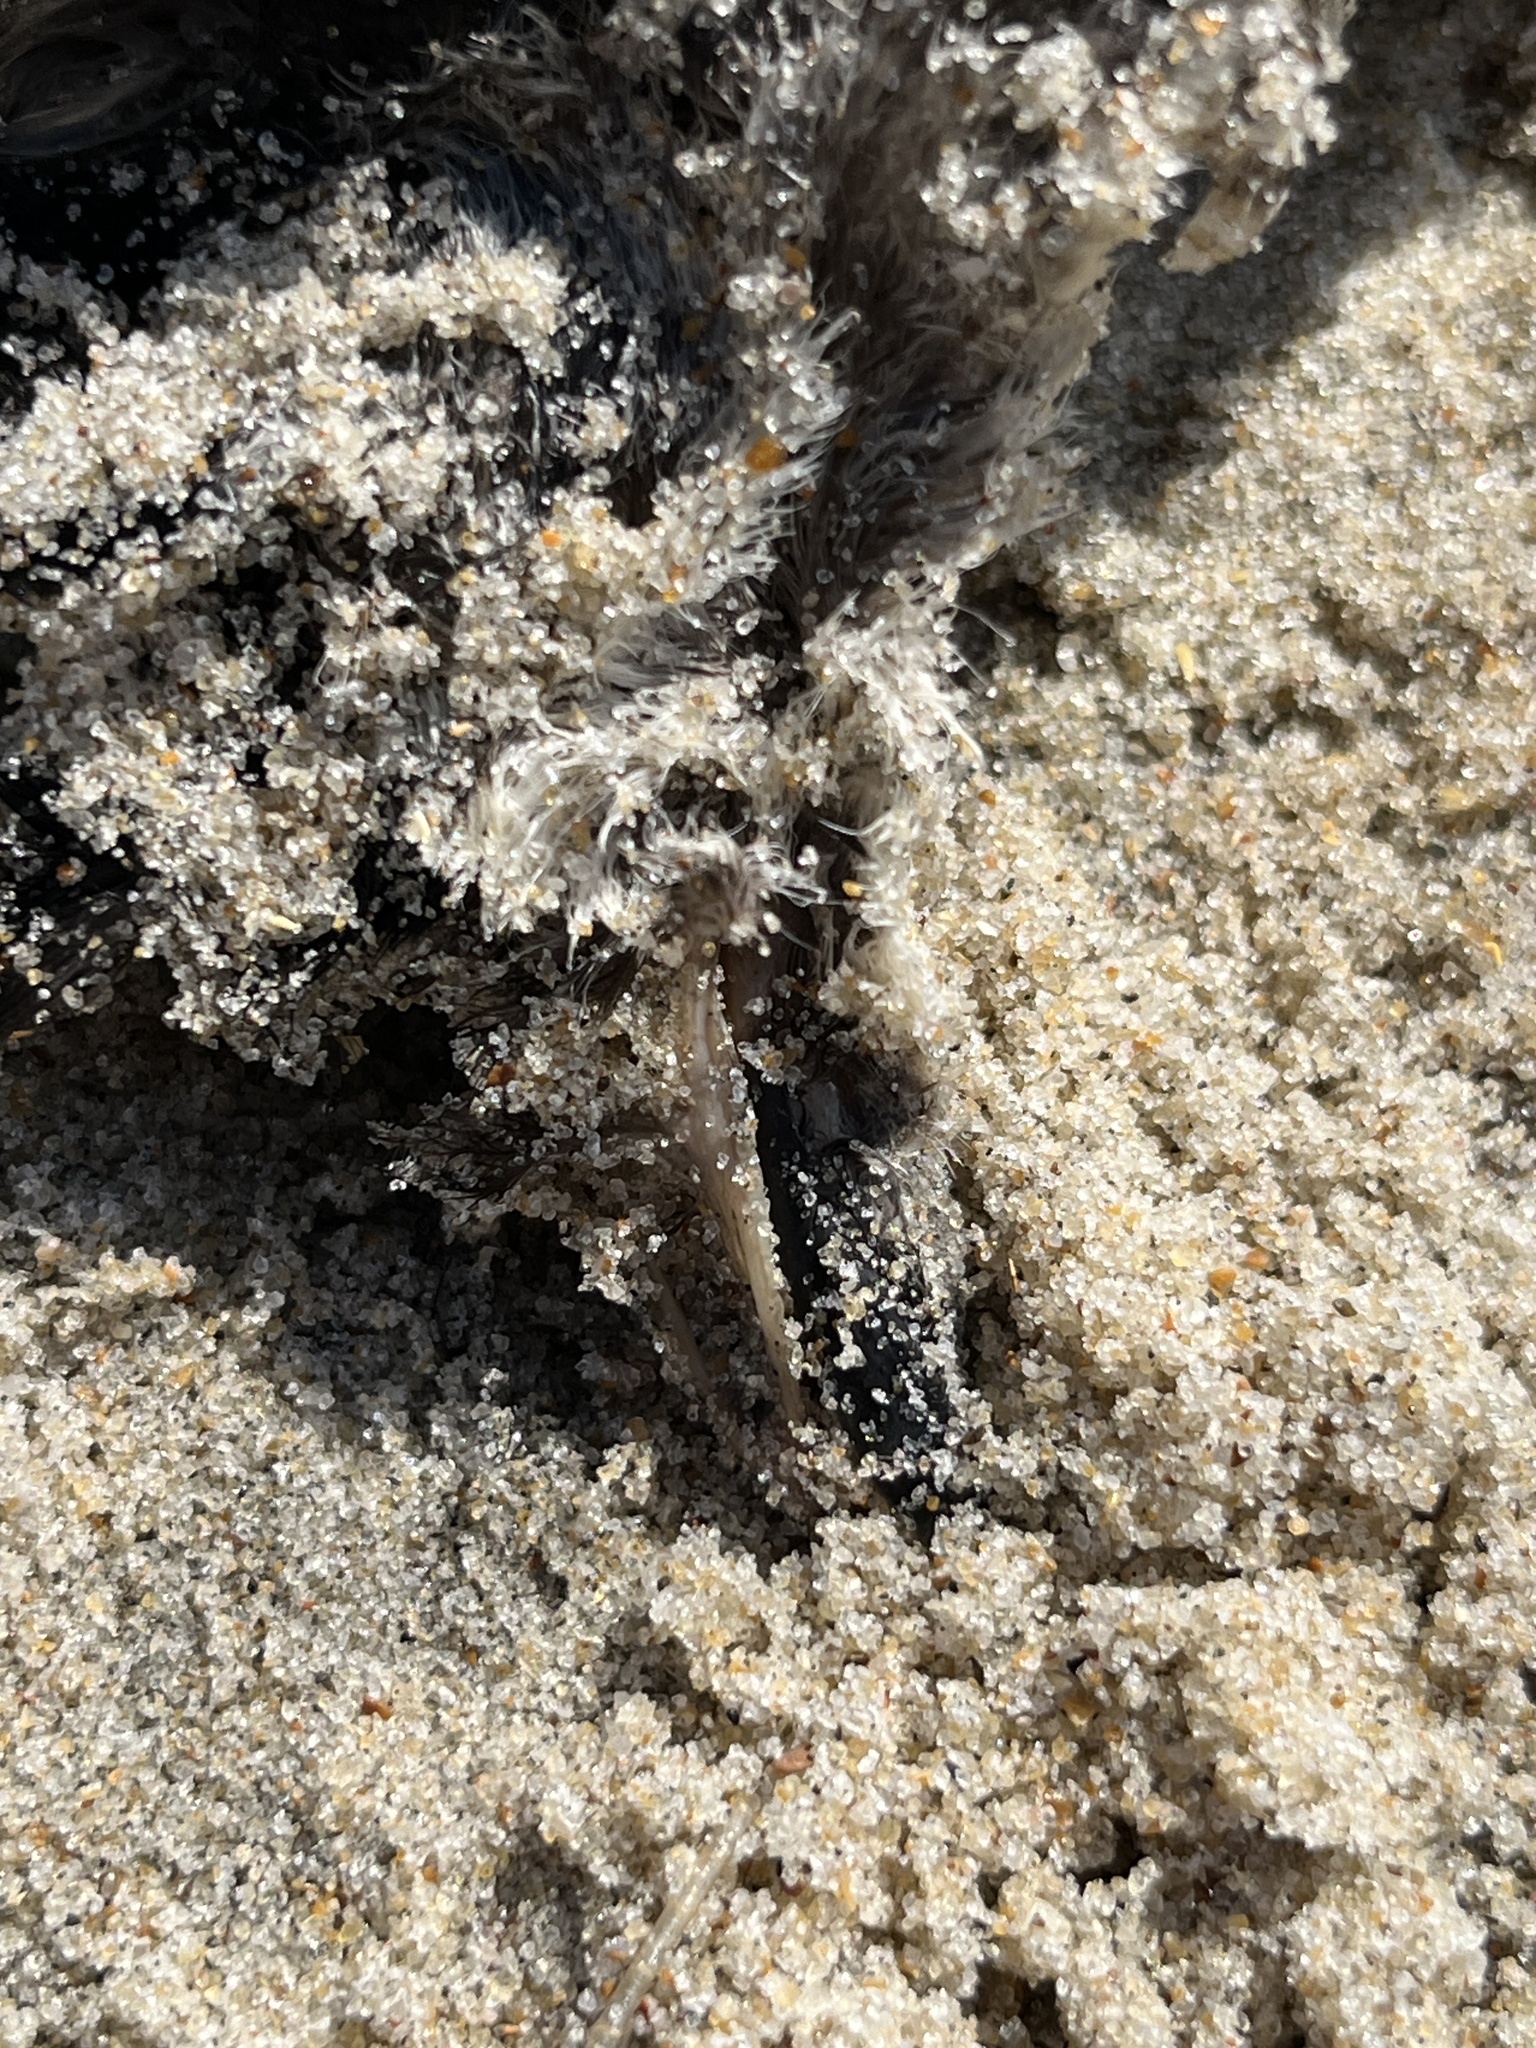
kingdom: Animalia
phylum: Chordata
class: Aves
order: Charadriiformes
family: Alcidae
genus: Alle
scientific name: Alle alle
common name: Little auk
